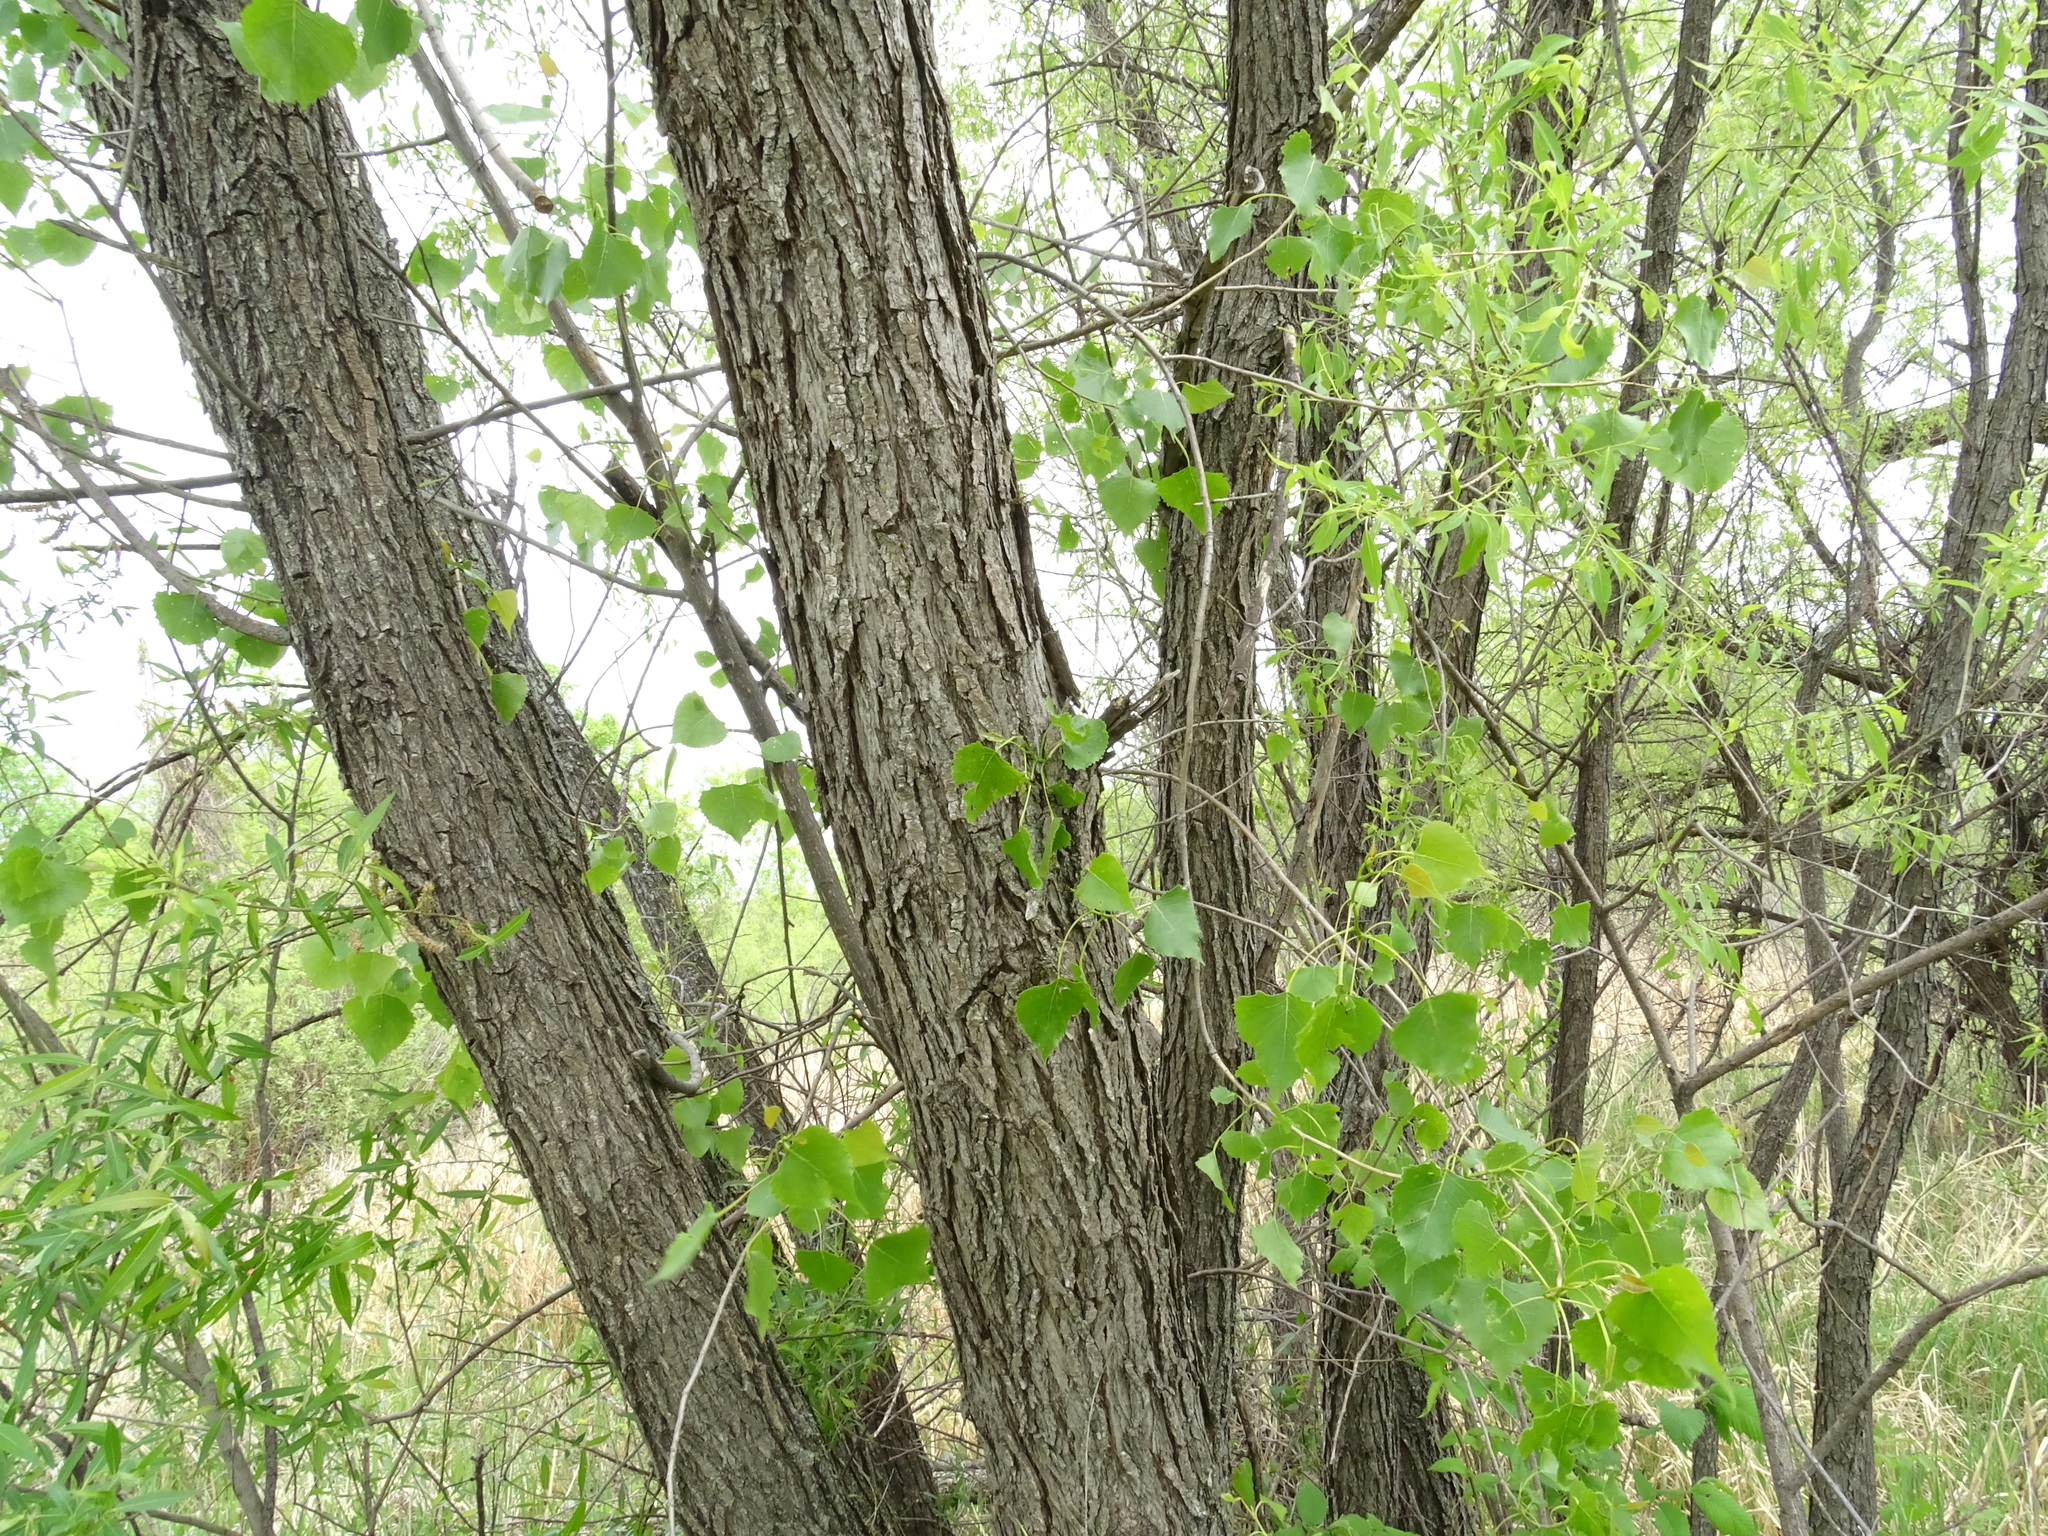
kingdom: Plantae
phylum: Tracheophyta
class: Magnoliopsida
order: Malpighiales
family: Salicaceae
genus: Populus
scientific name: Populus deltoides
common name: Eastern cottonwood
